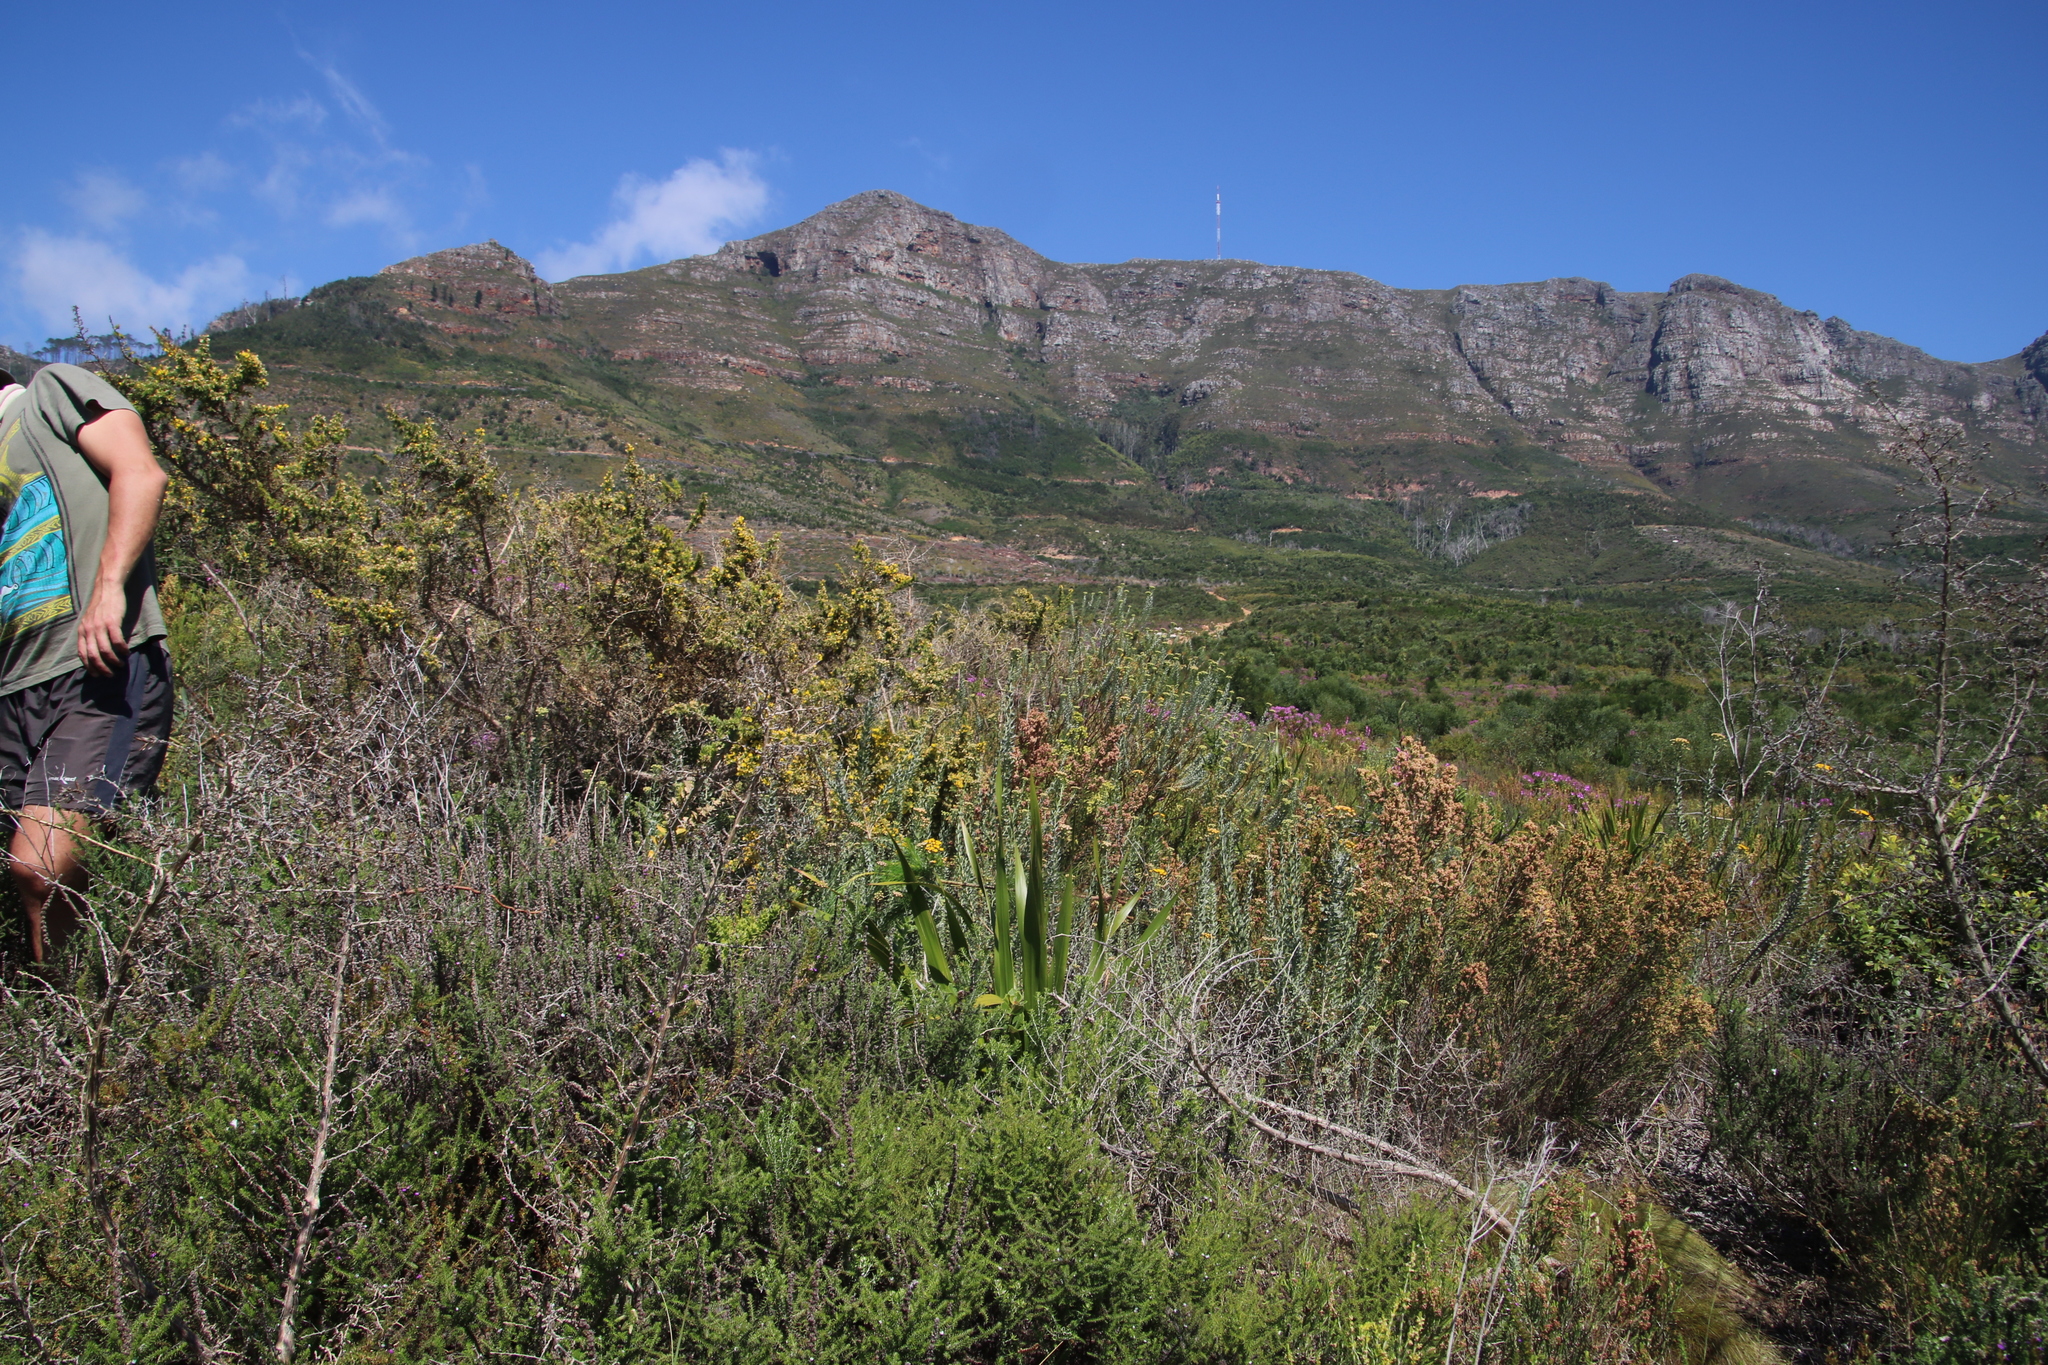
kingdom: Plantae
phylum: Tracheophyta
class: Magnoliopsida
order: Fabales
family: Fabaceae
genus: Aspalathus
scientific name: Aspalathus astroites
